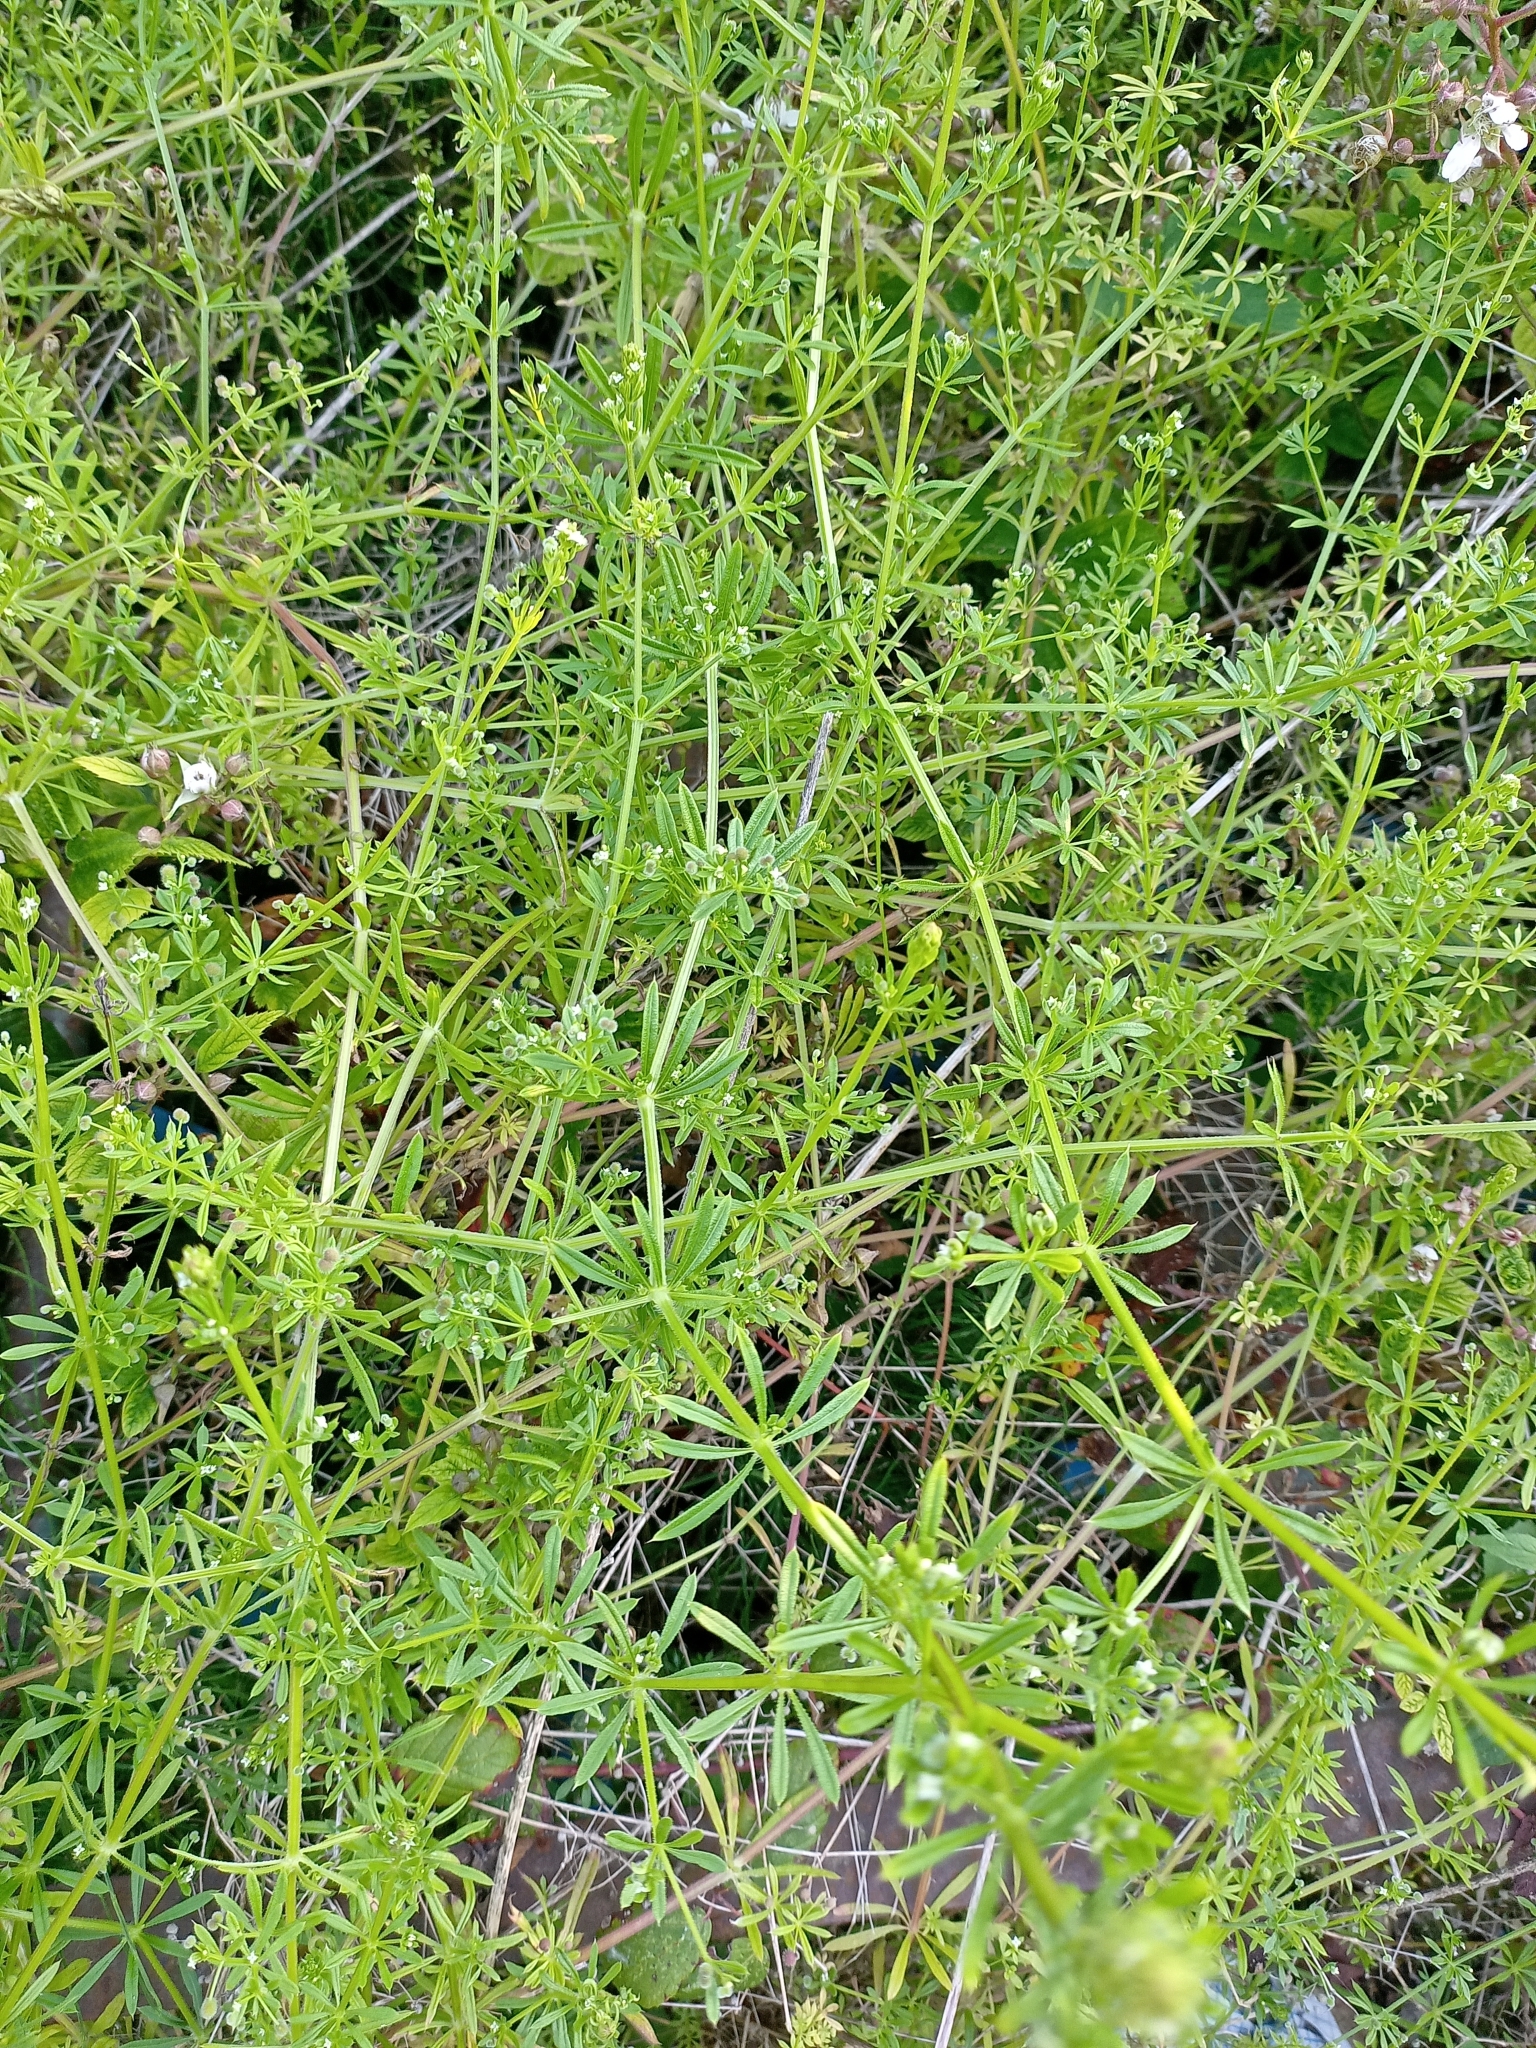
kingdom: Plantae
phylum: Tracheophyta
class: Magnoliopsida
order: Gentianales
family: Rubiaceae
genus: Galium
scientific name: Galium aparine
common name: Cleavers
